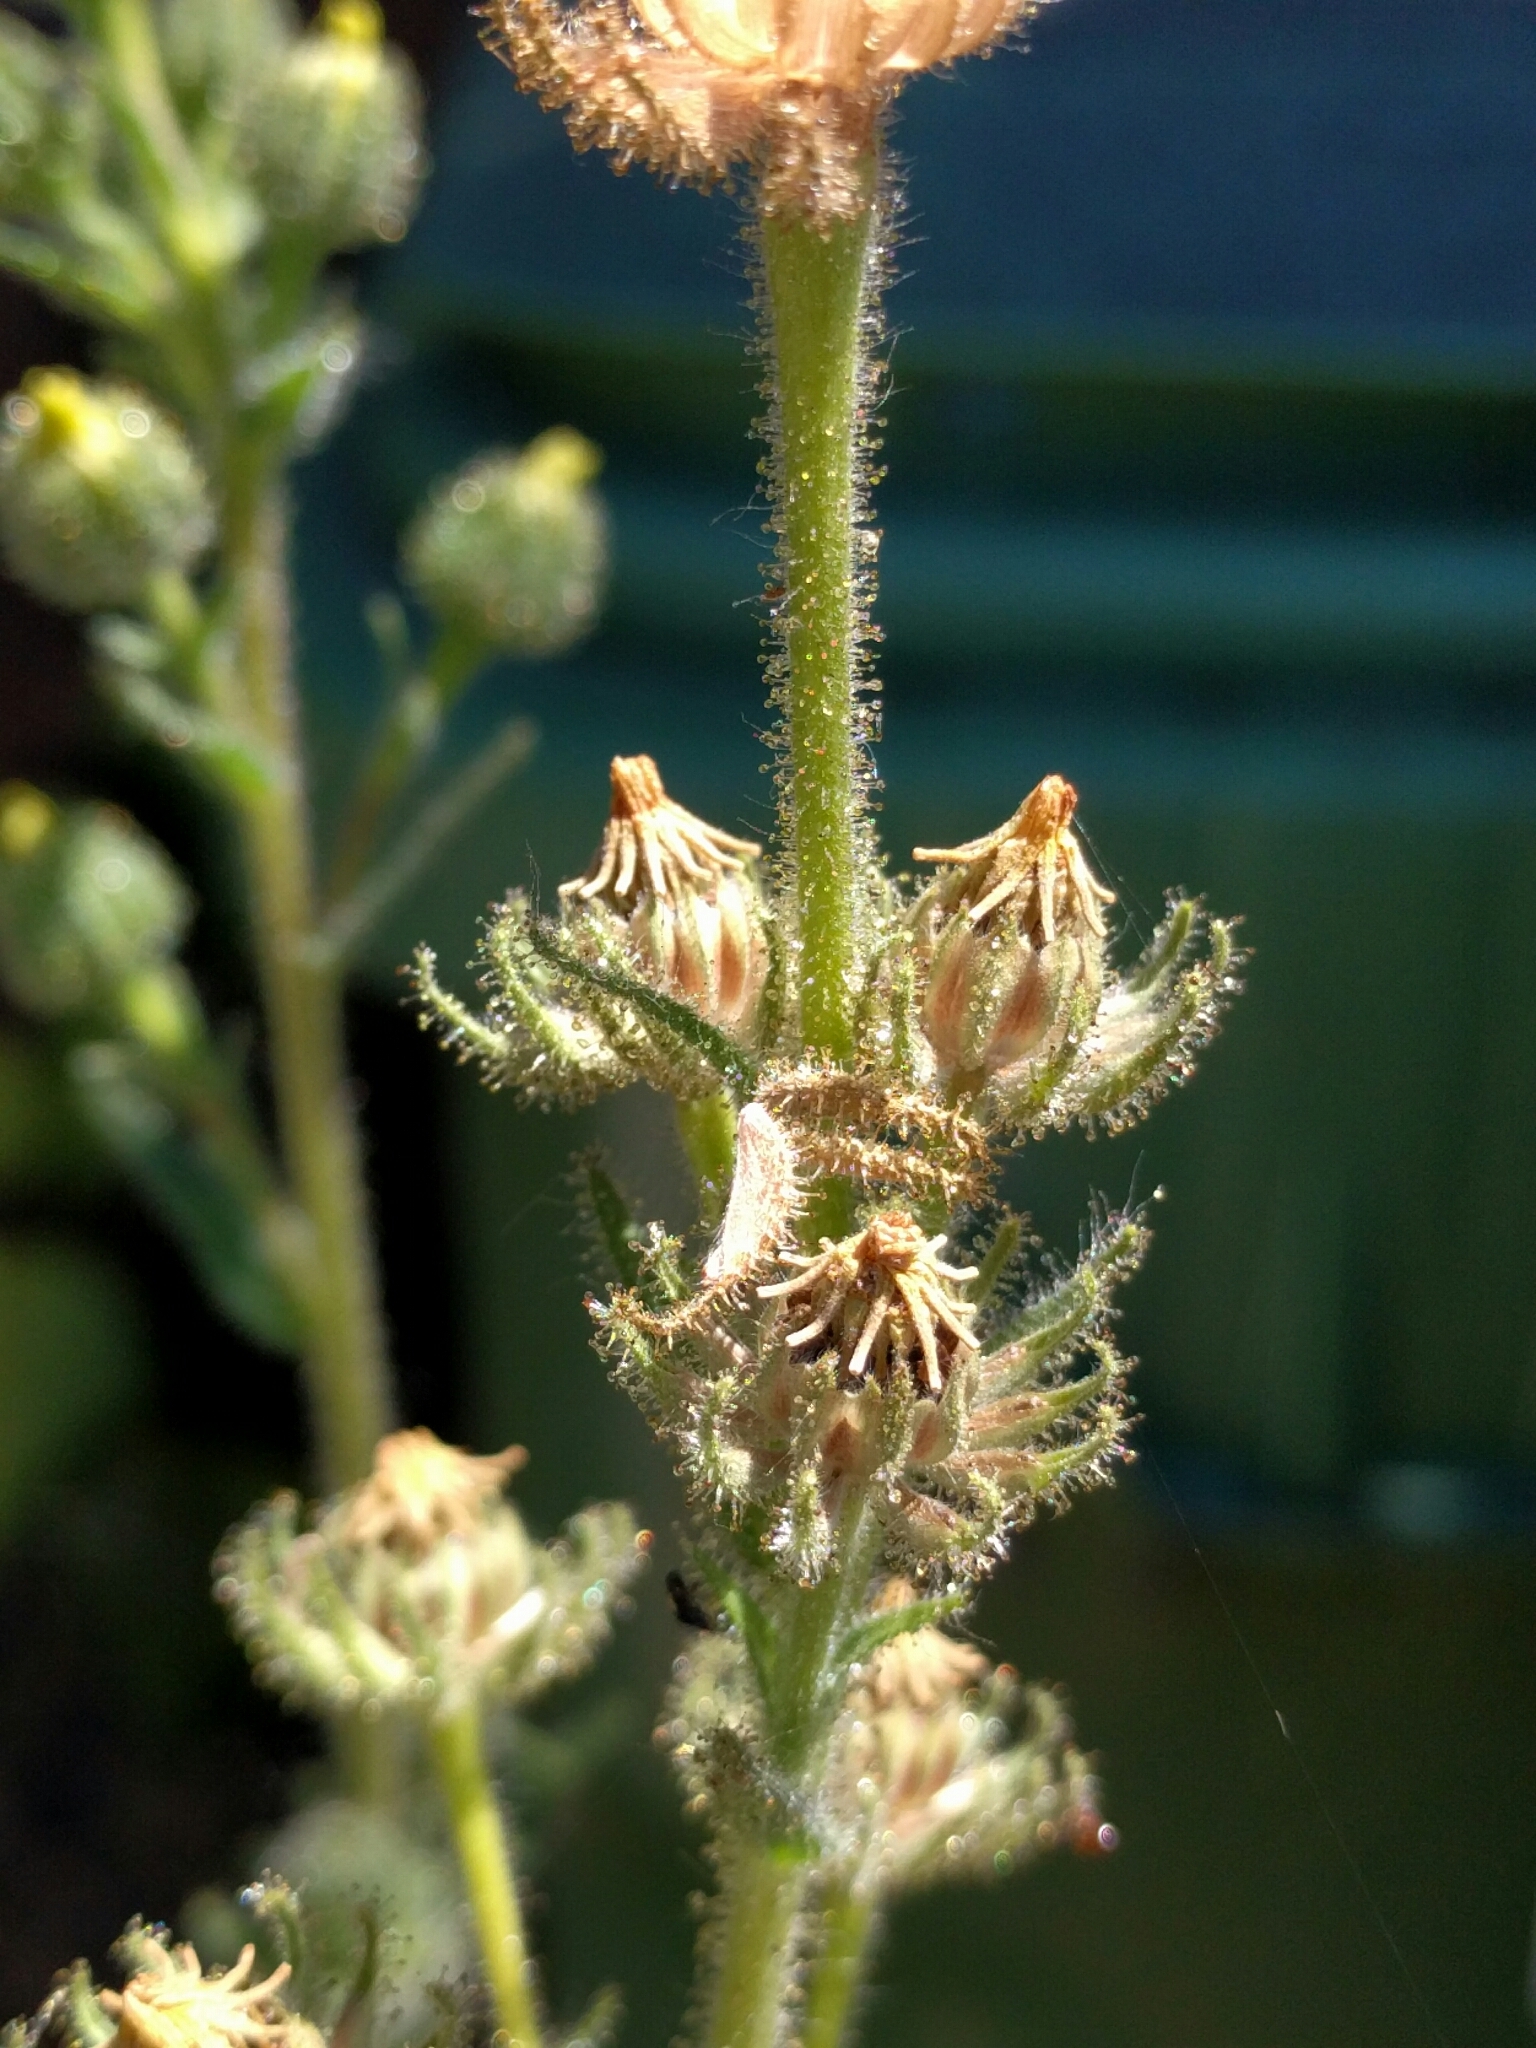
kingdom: Plantae
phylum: Tracheophyta
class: Magnoliopsida
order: Asterales
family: Asteraceae
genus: Madia
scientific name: Madia sativa
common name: Coast tarweed
